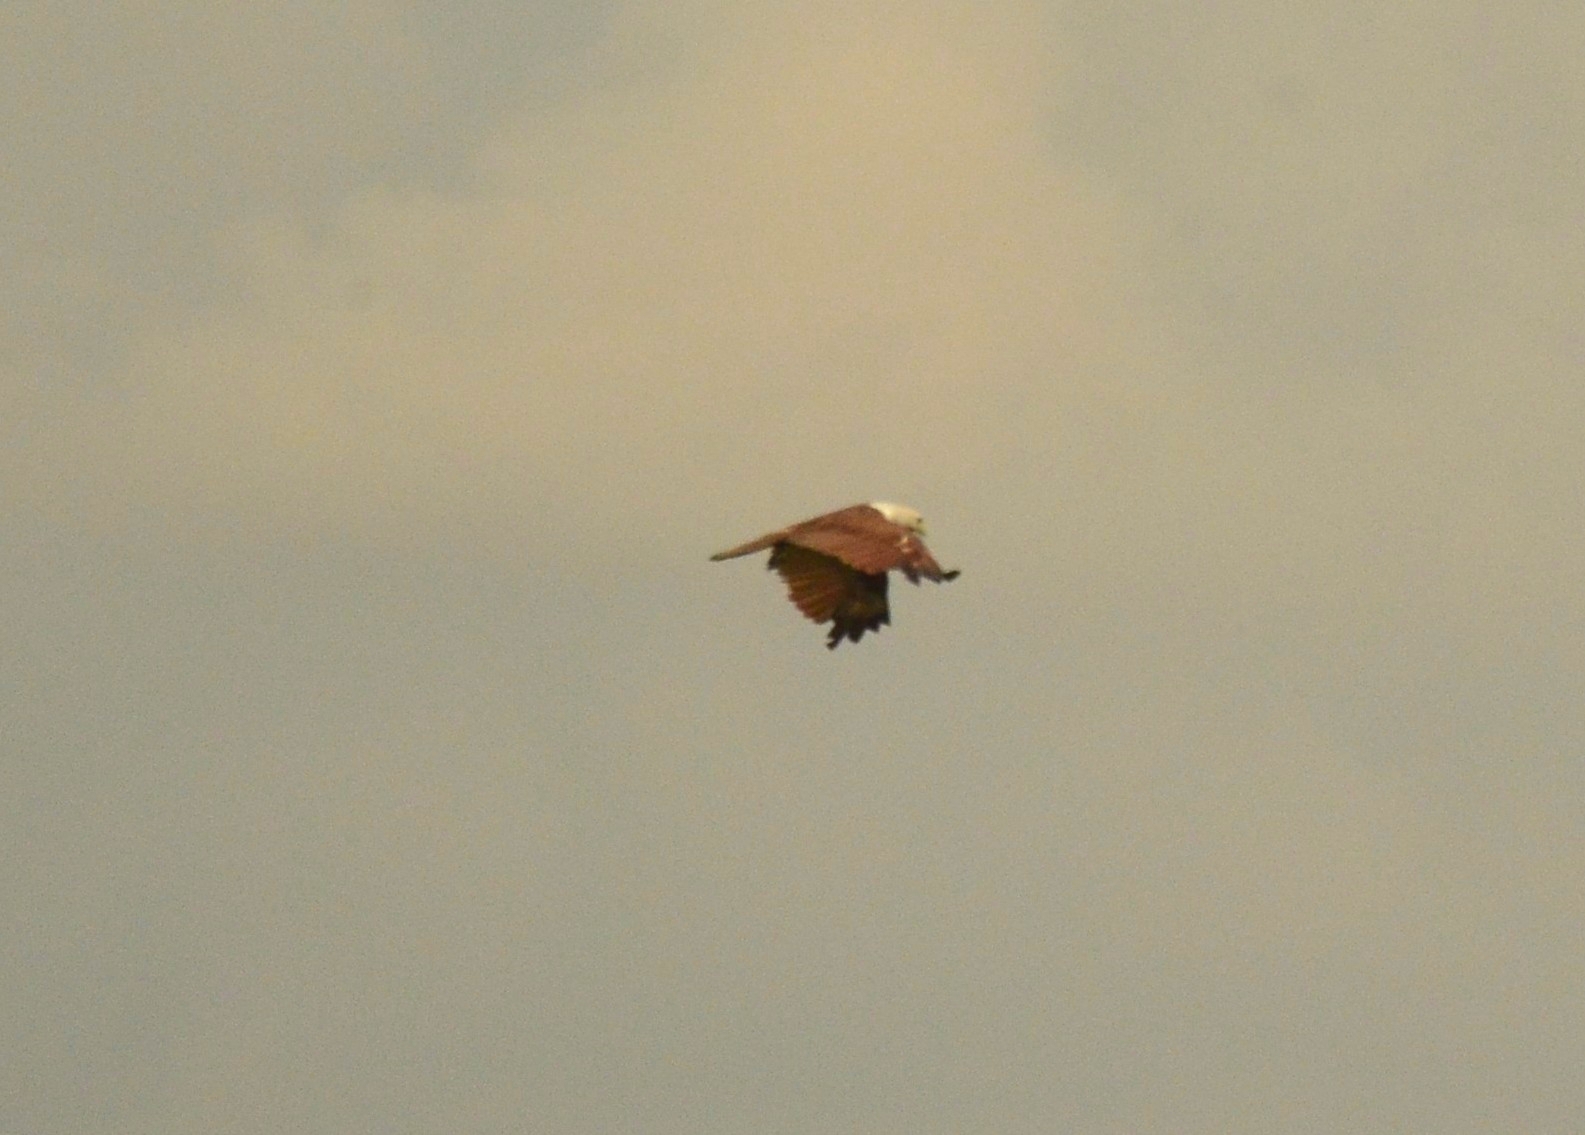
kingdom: Animalia
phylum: Chordata
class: Aves
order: Accipitriformes
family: Accipitridae
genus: Haliastur
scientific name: Haliastur indus
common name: Brahminy kite
